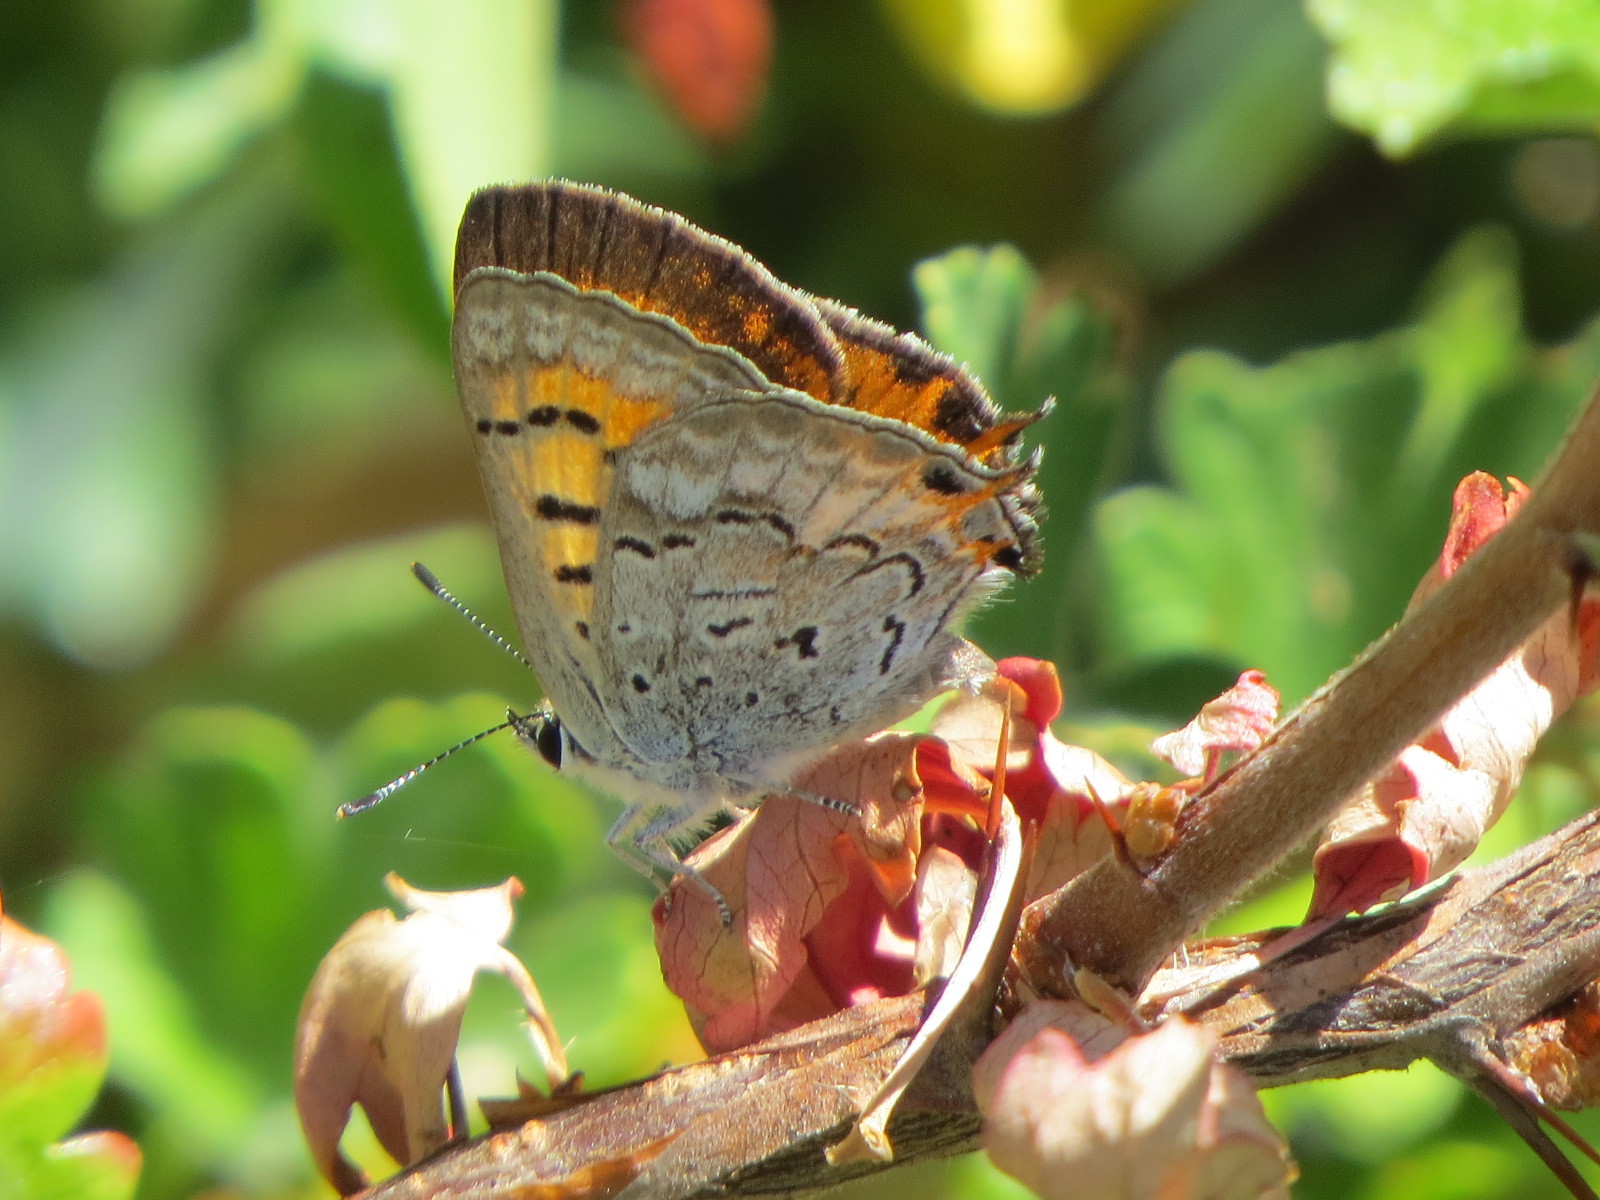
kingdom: Animalia
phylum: Arthropoda
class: Insecta
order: Lepidoptera
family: Lycaenidae
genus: Tharsalea
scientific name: Tharsalea arota
